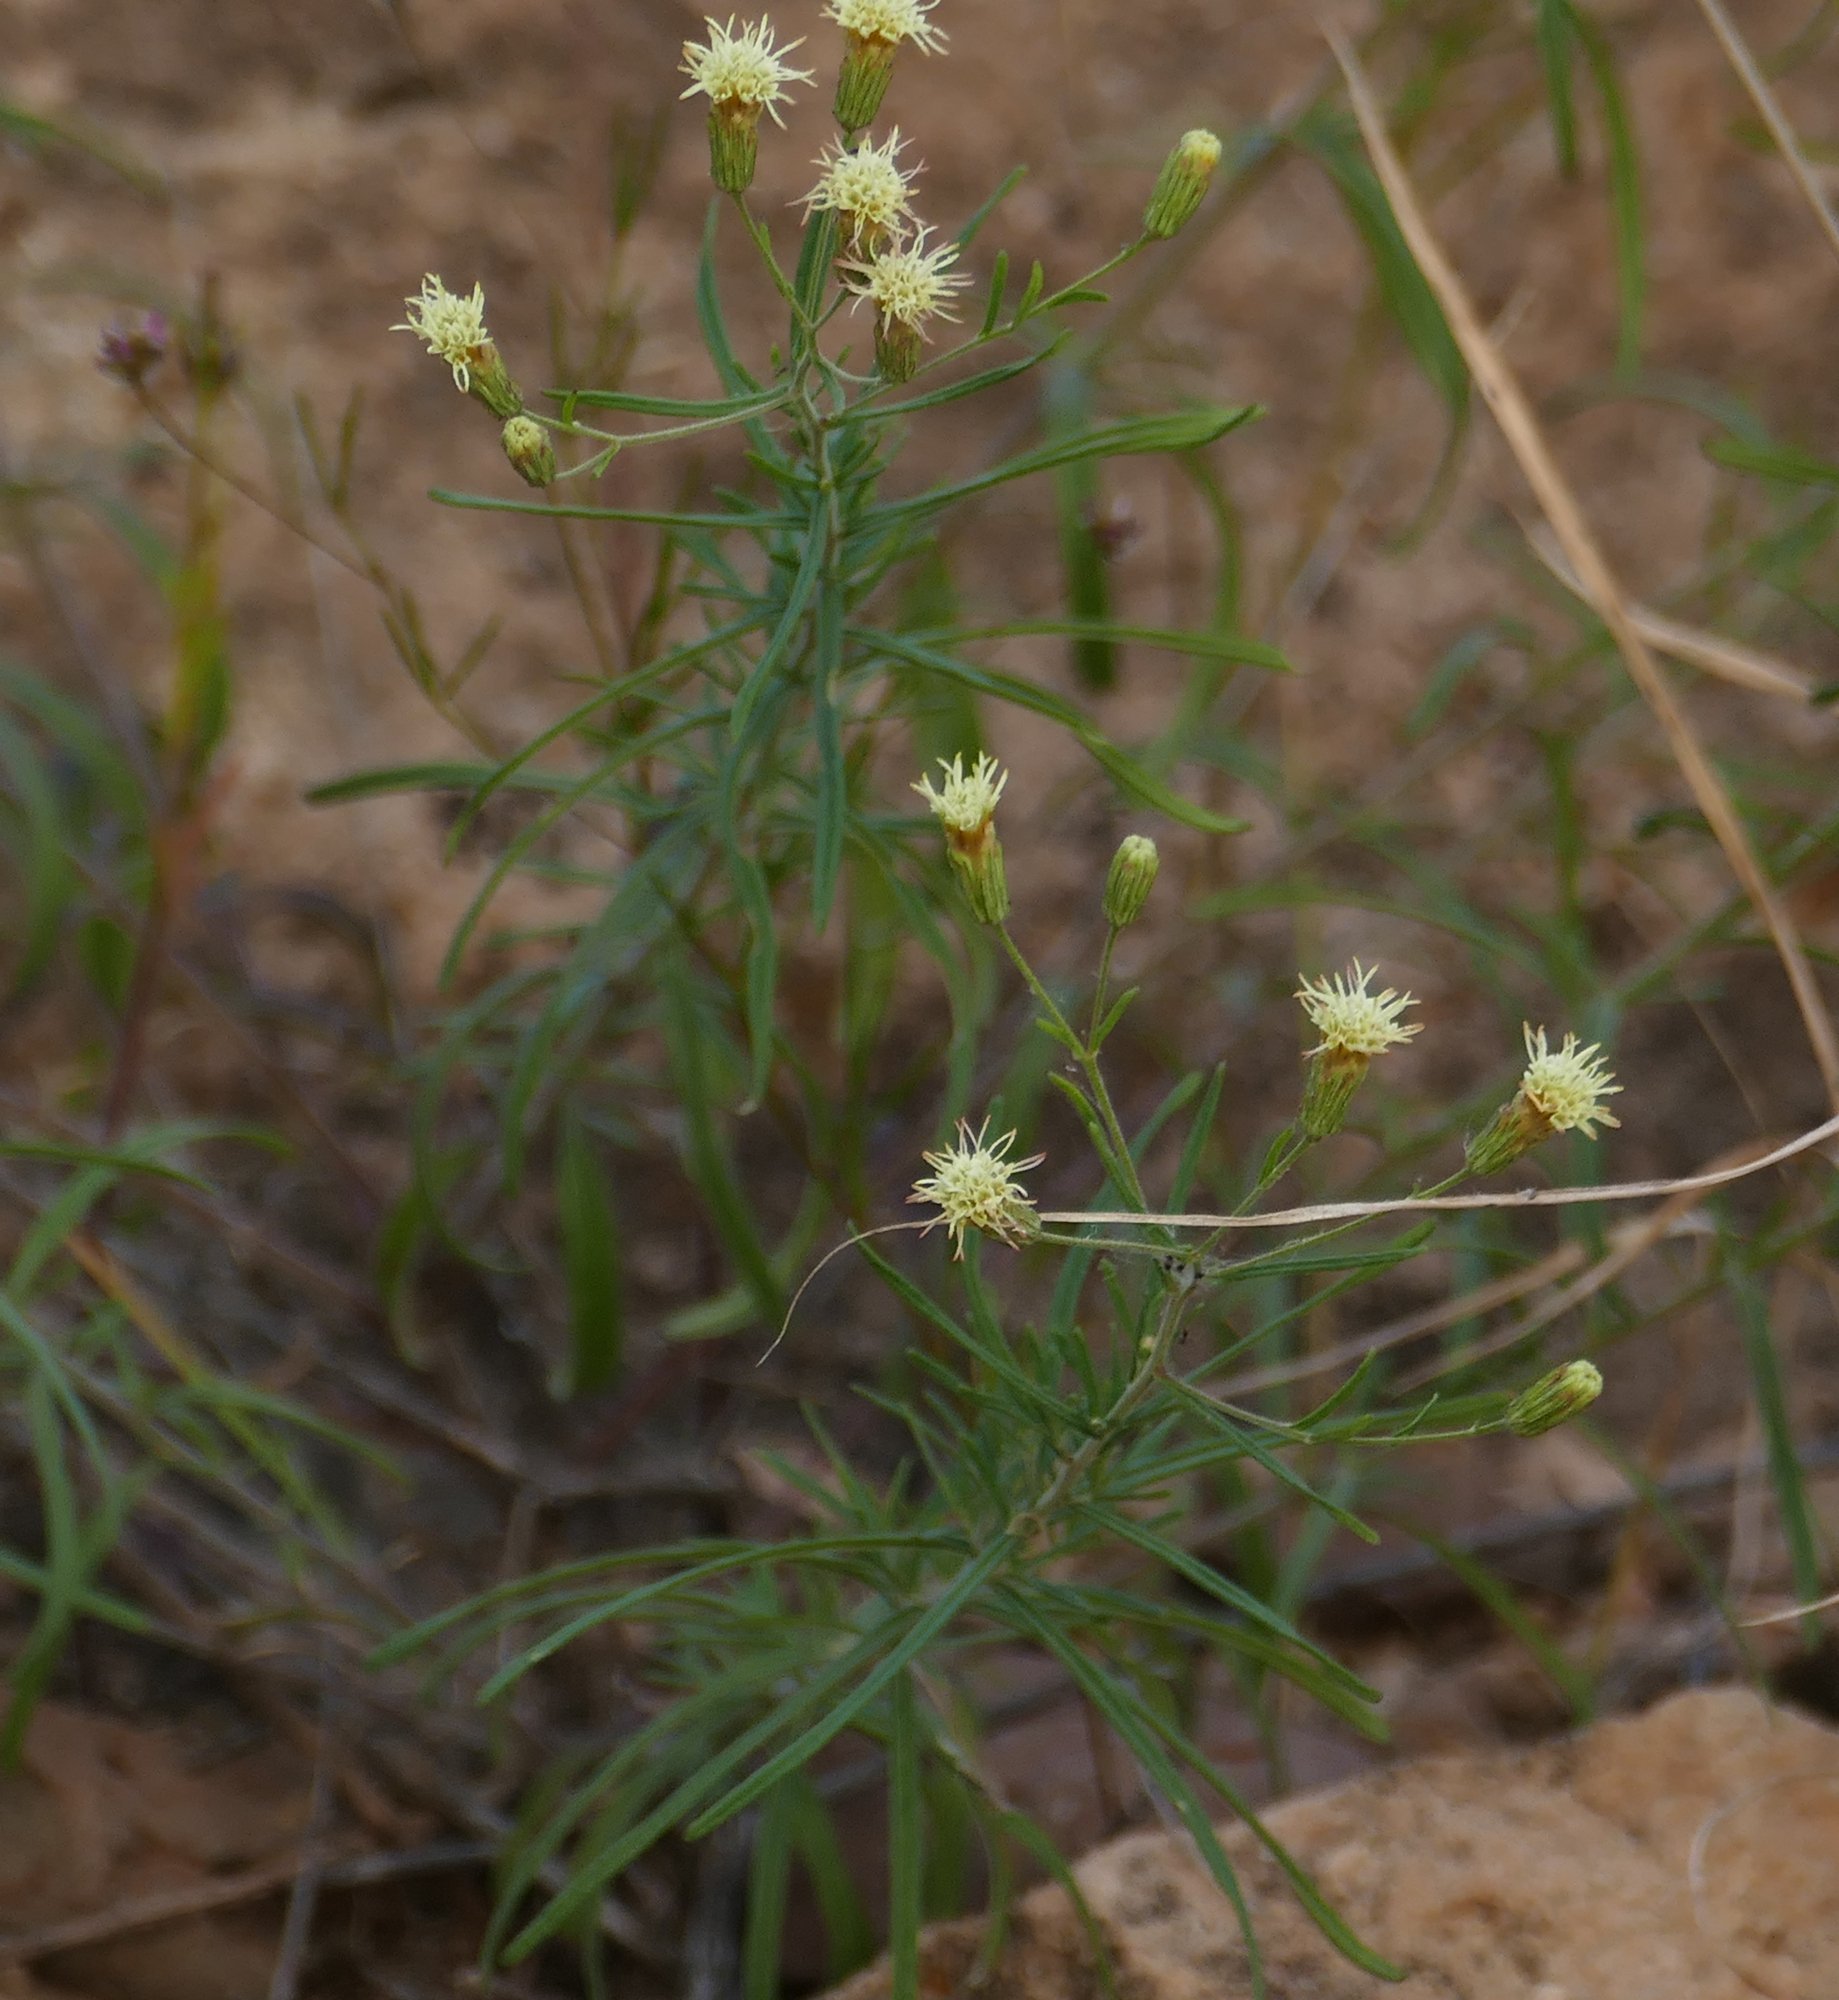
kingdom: Plantae
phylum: Tracheophyta
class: Magnoliopsida
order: Asterales
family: Asteraceae
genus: Brickellia
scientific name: Brickellia eupatorioides
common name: False boneset
